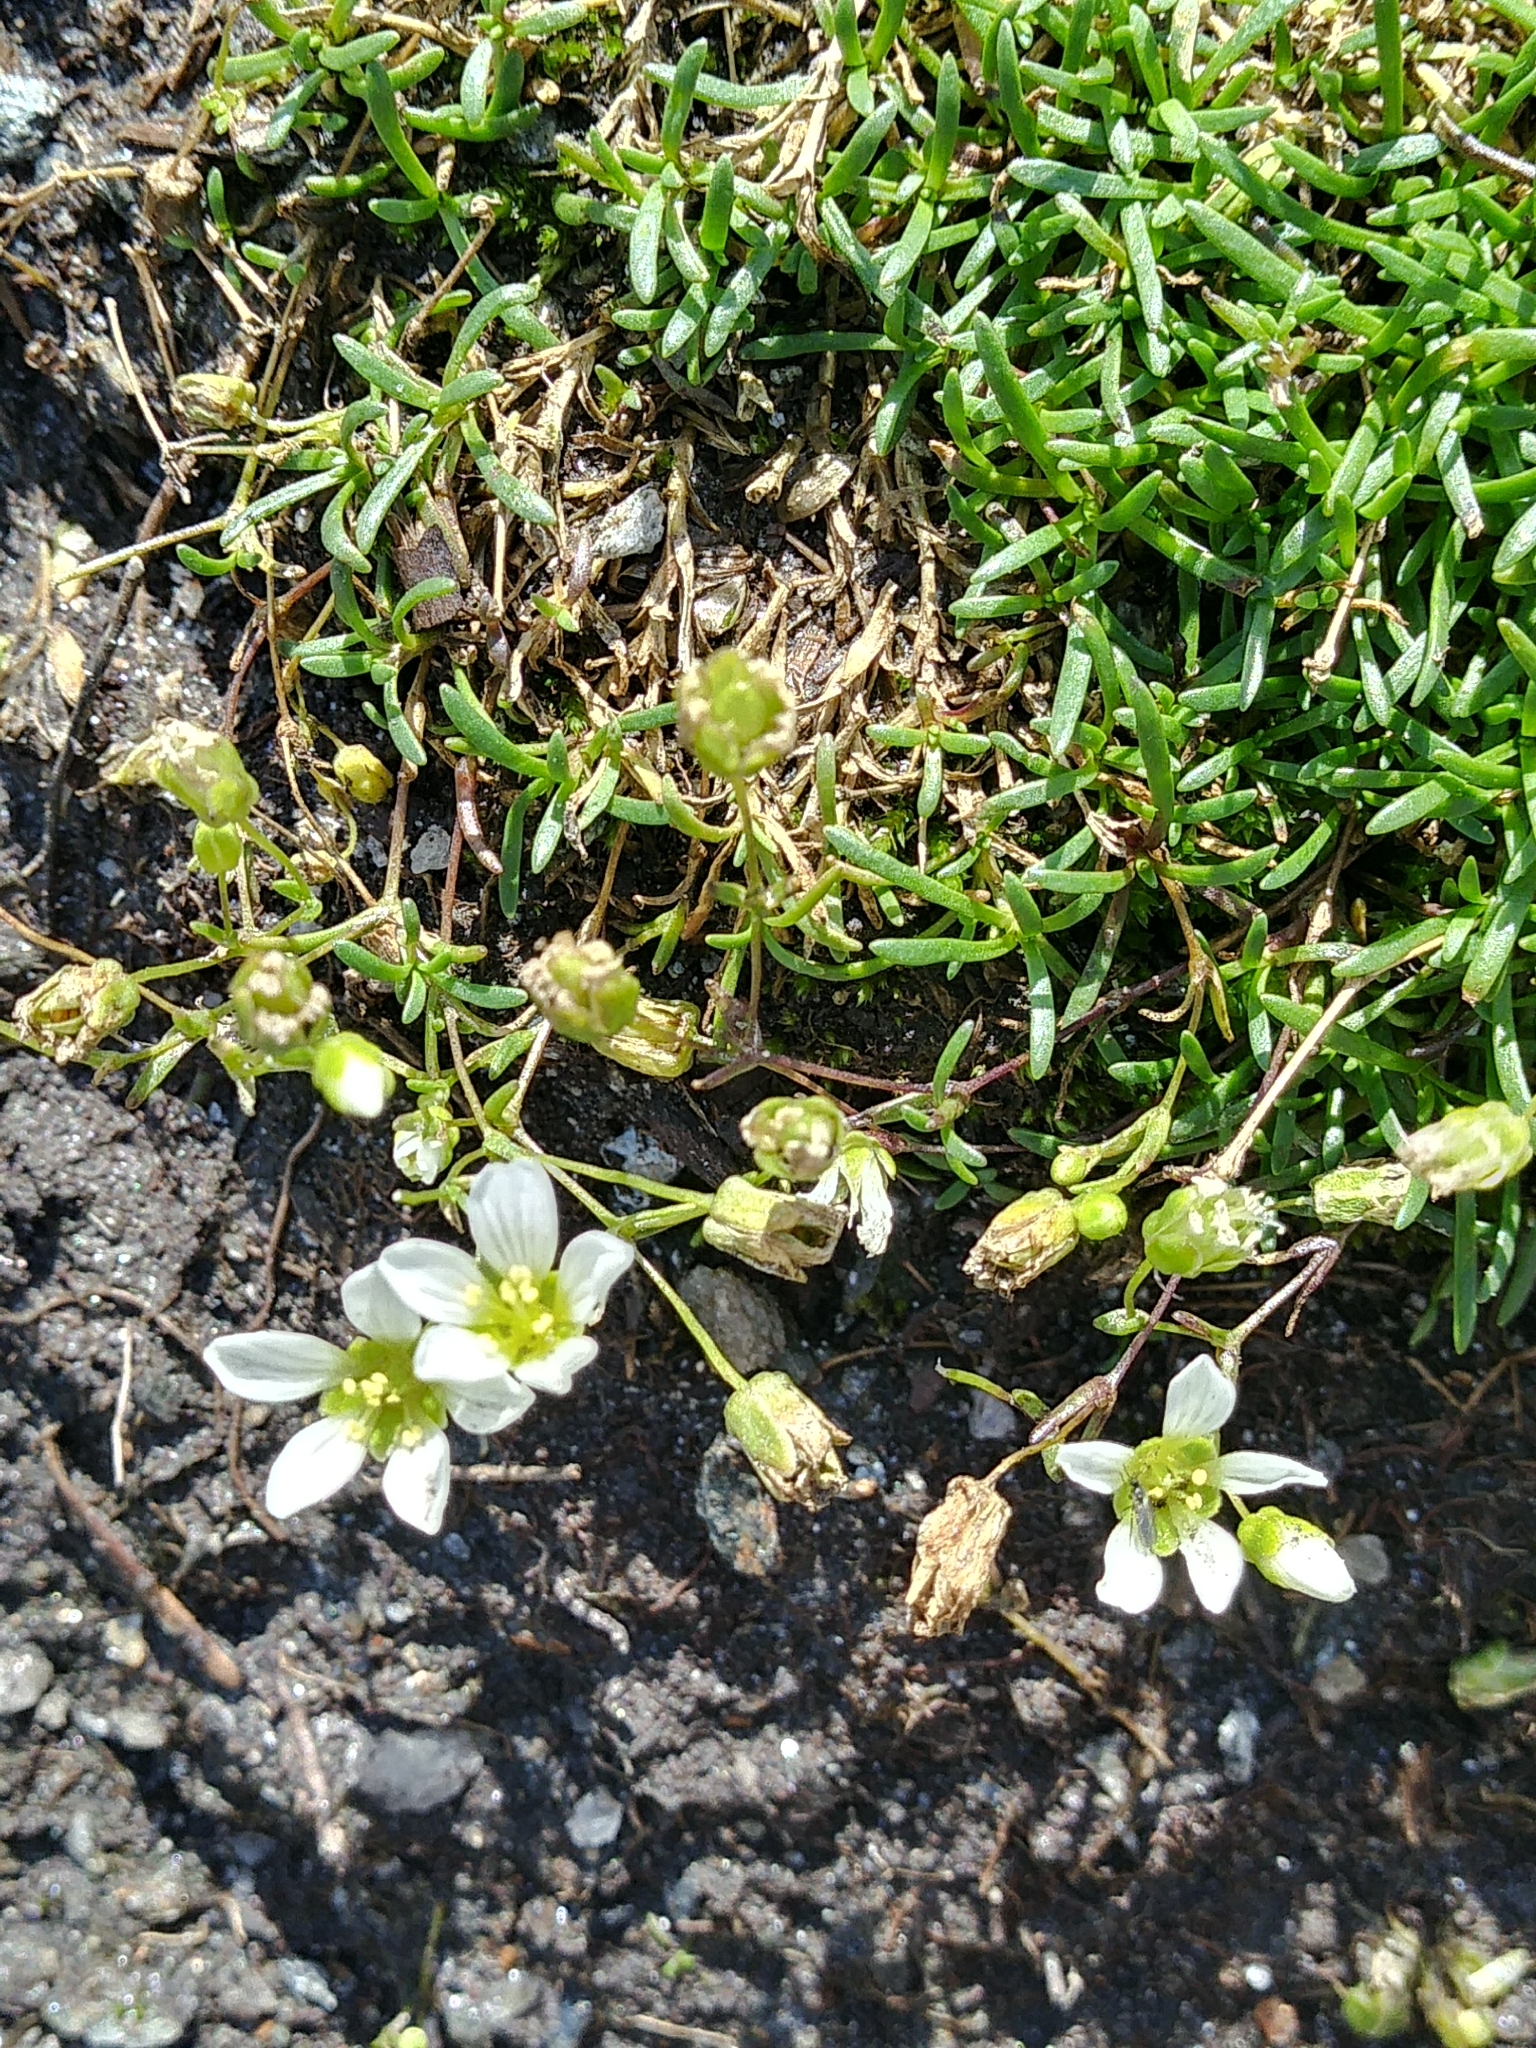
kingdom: Plantae
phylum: Tracheophyta
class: Magnoliopsida
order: Caryophyllales
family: Caryophyllaceae
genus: Geocarpon
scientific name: Geocarpon groenlandicum
